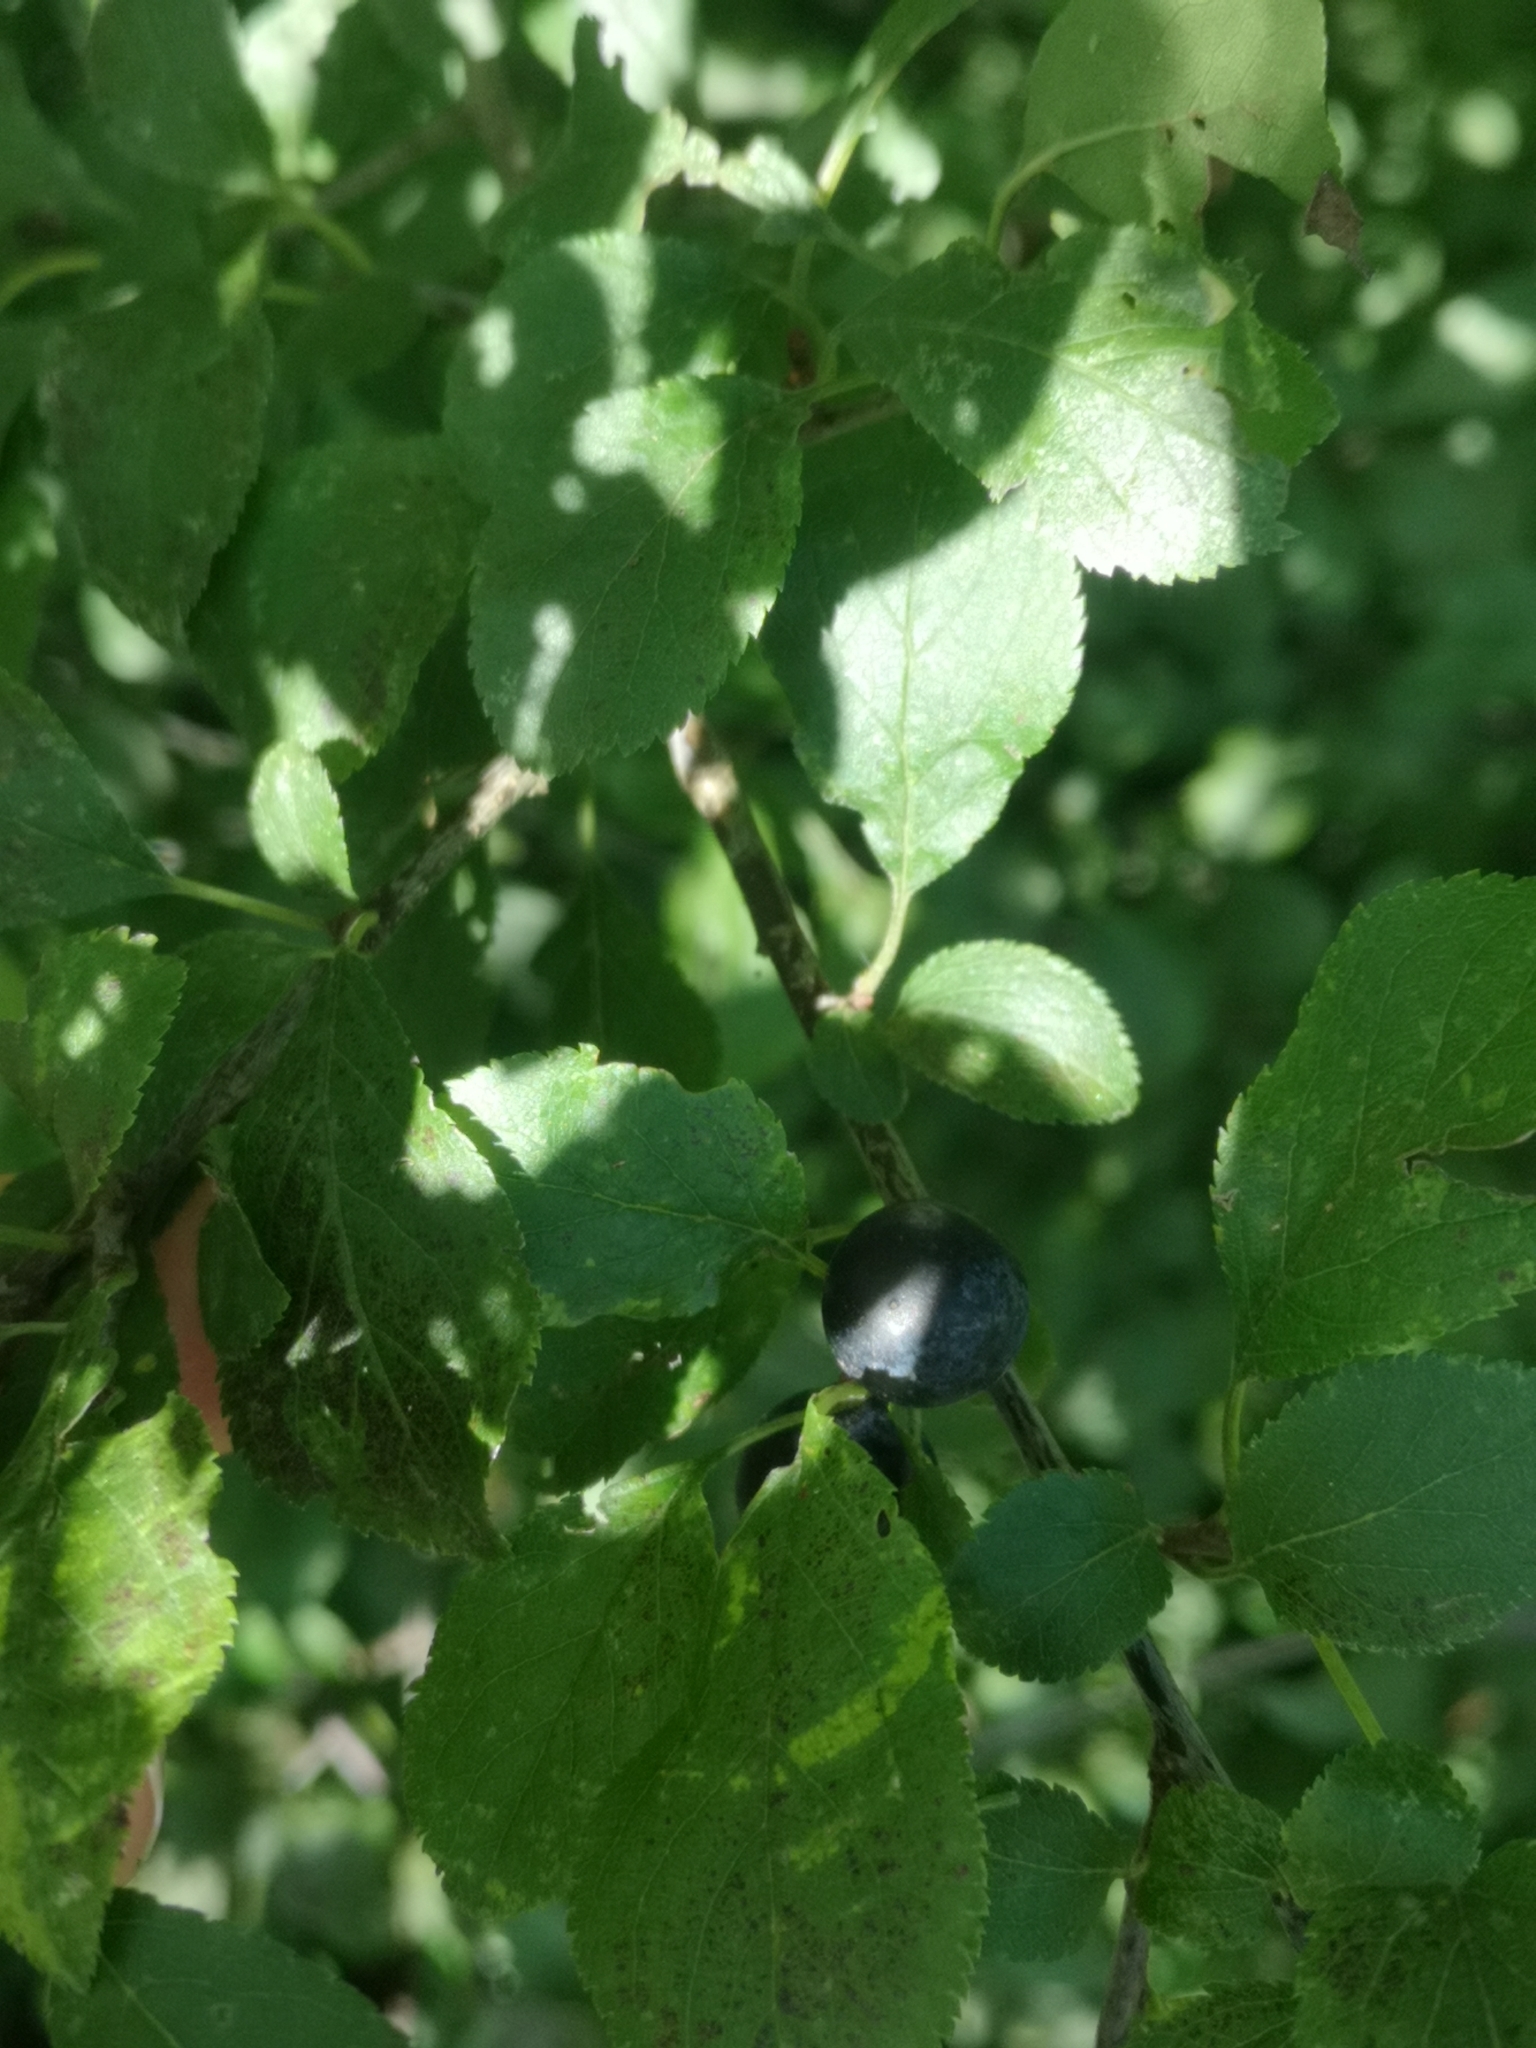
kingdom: Plantae
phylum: Tracheophyta
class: Magnoliopsida
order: Rosales
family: Rosaceae
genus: Prunus
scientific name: Prunus spinosa
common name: Blackthorn
